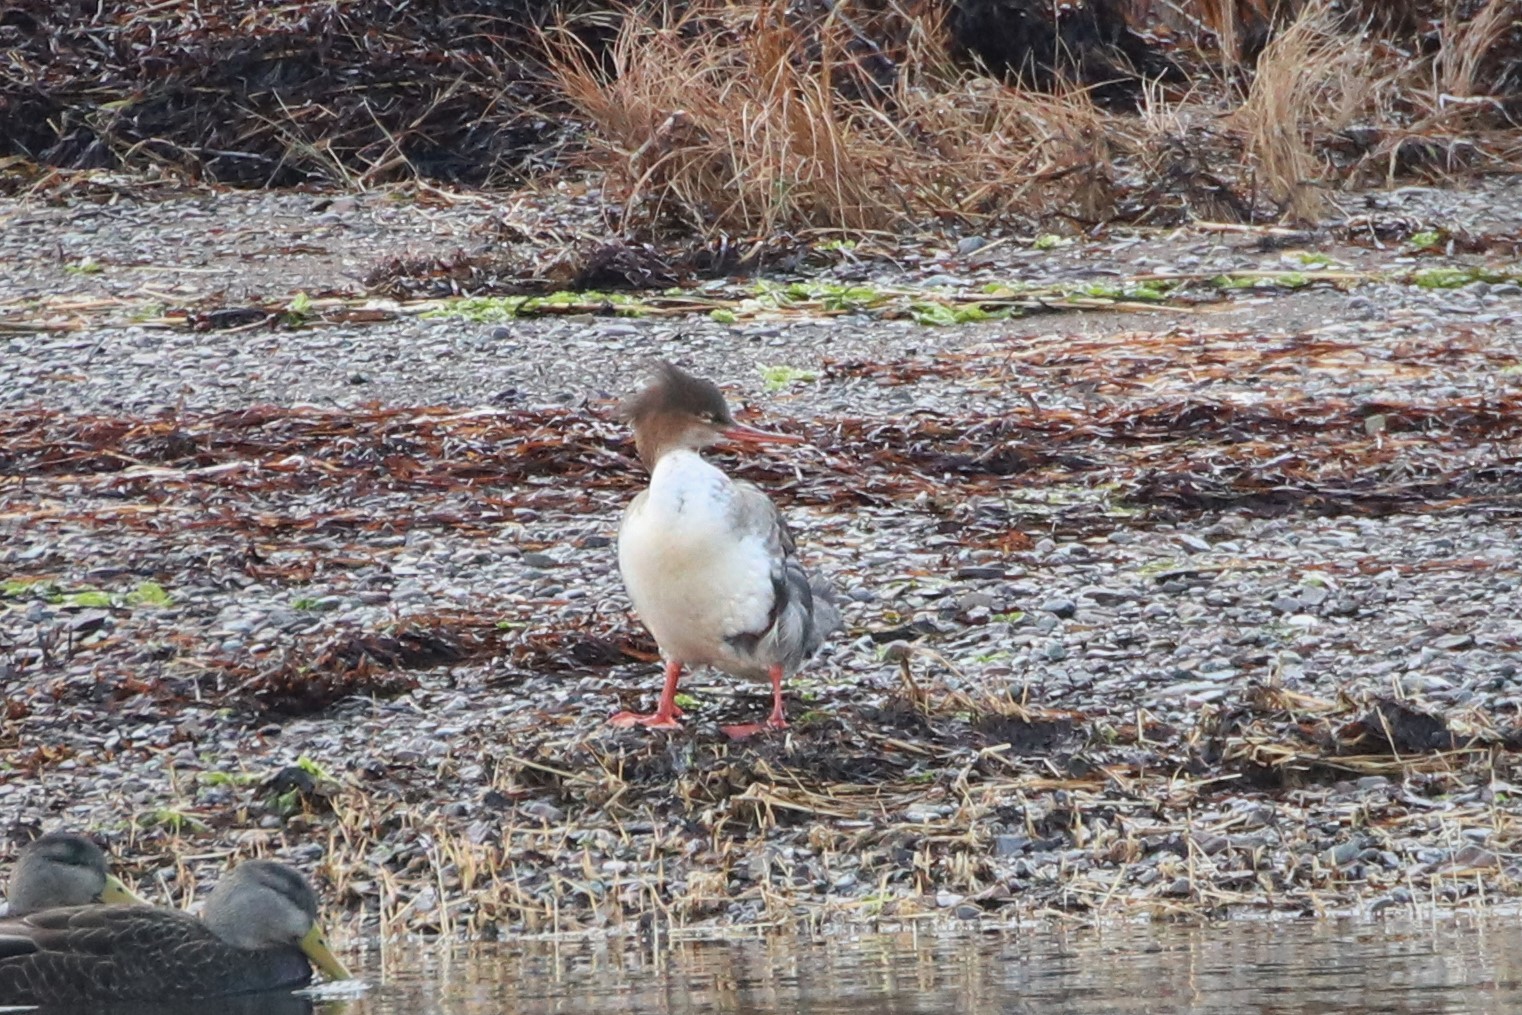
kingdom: Animalia
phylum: Chordata
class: Aves
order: Anseriformes
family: Anatidae
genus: Mergus
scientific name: Mergus serrator
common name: Red-breasted merganser
